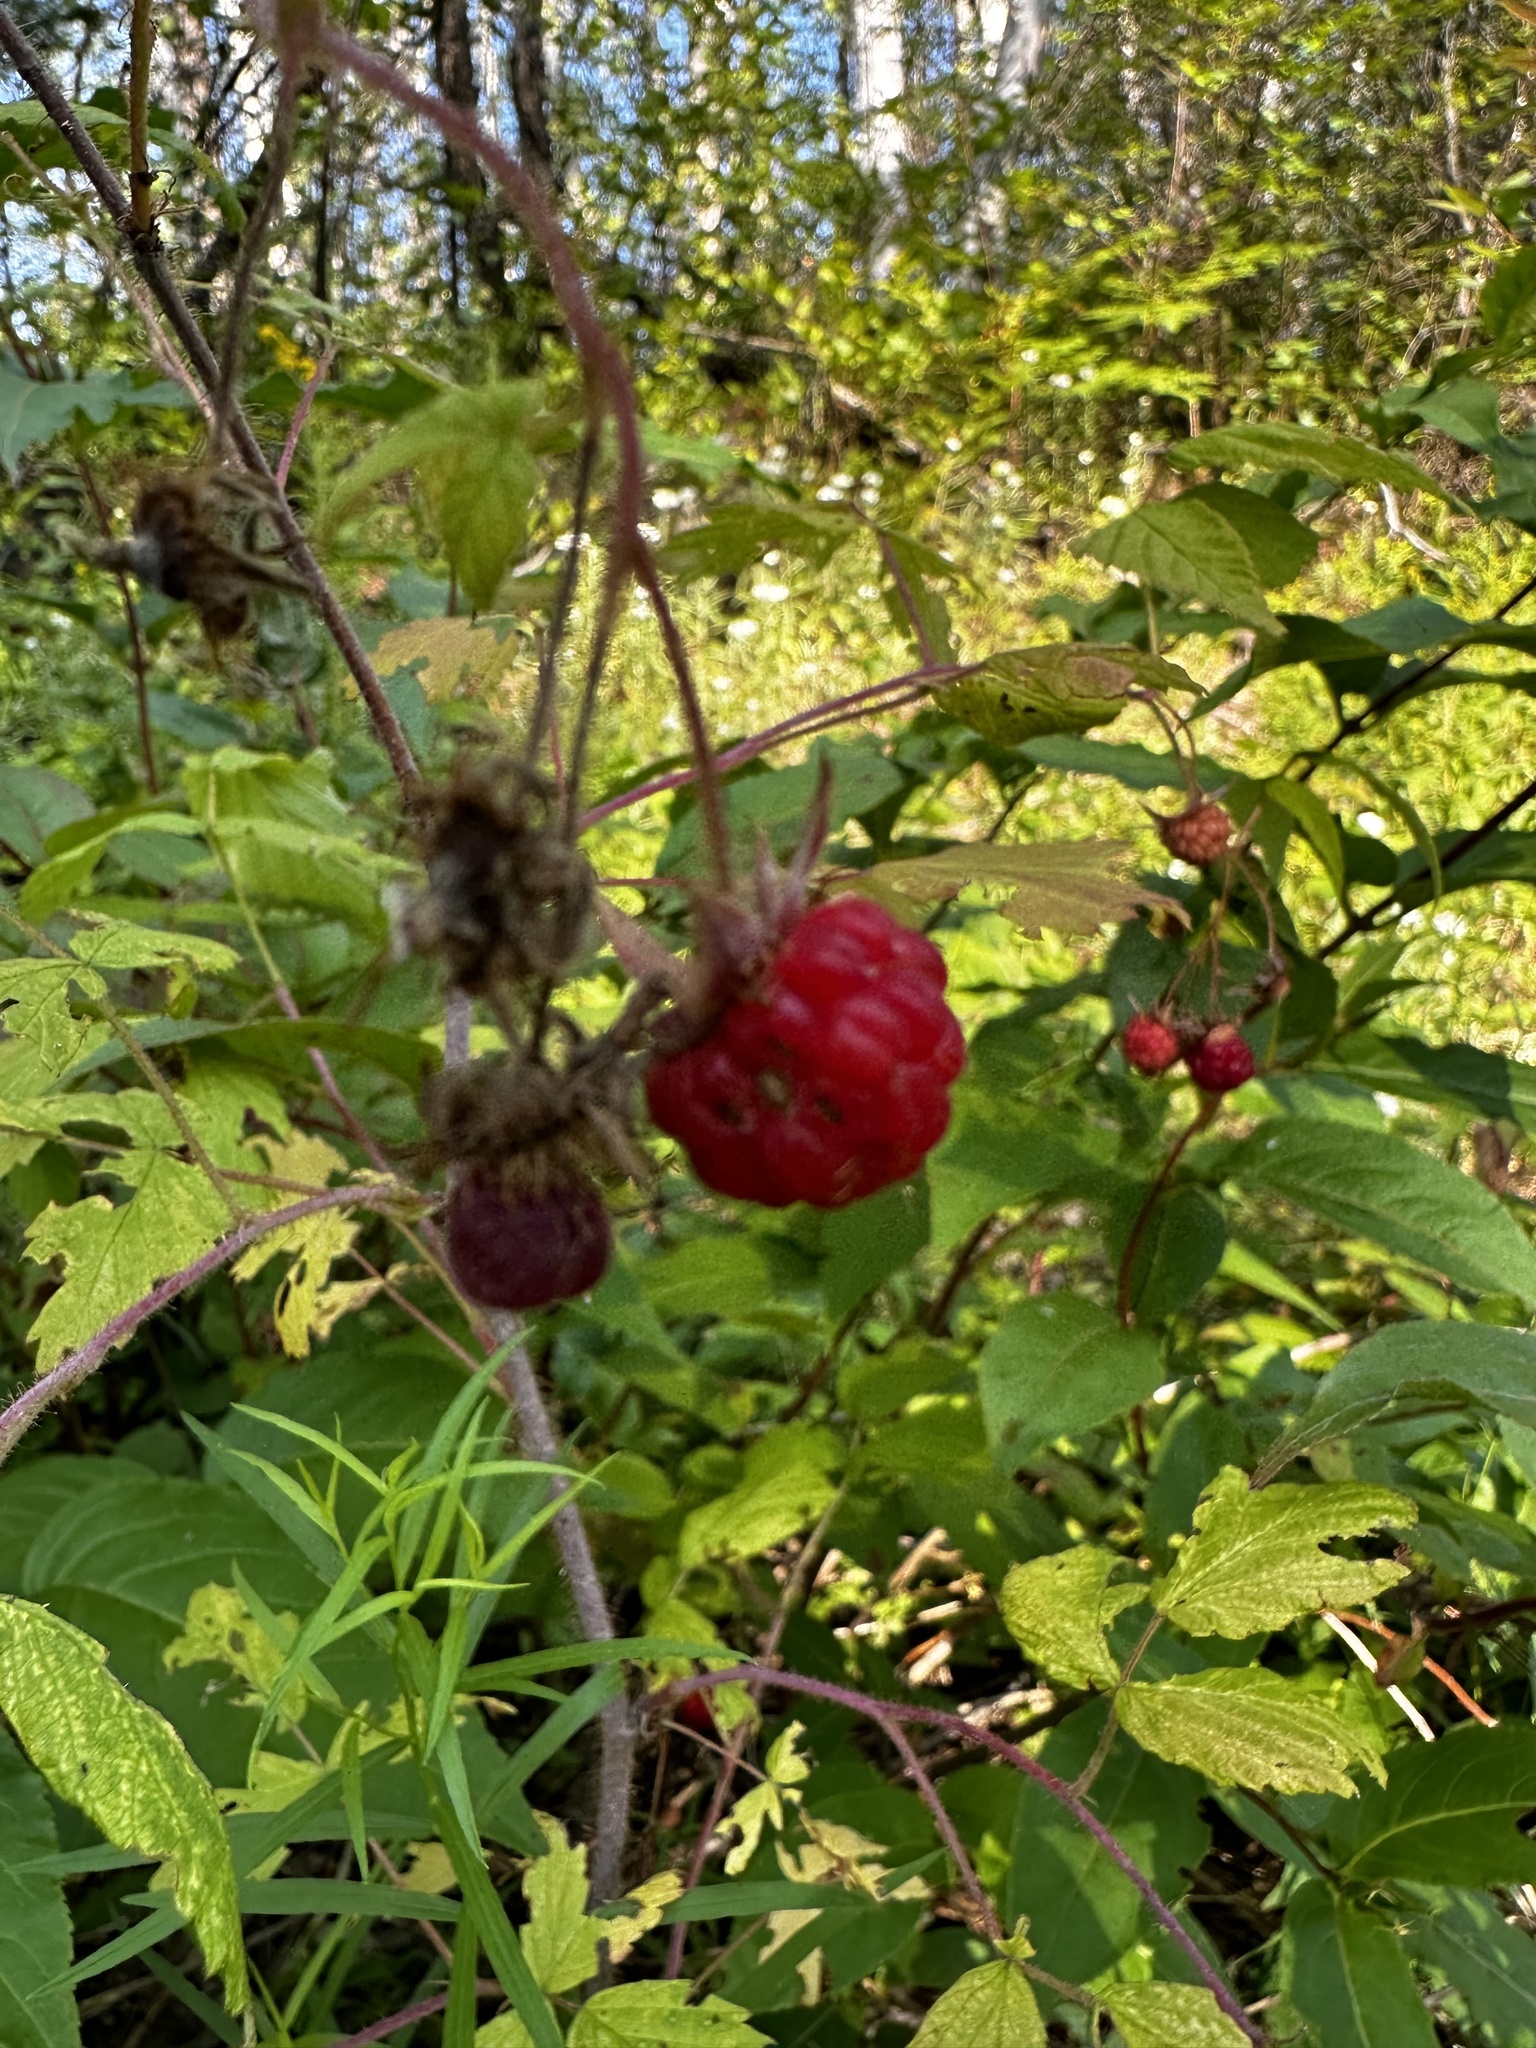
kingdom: Plantae
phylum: Tracheophyta
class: Magnoliopsida
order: Rosales
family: Rosaceae
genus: Rubus
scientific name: Rubus idaeus
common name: Raspberry
